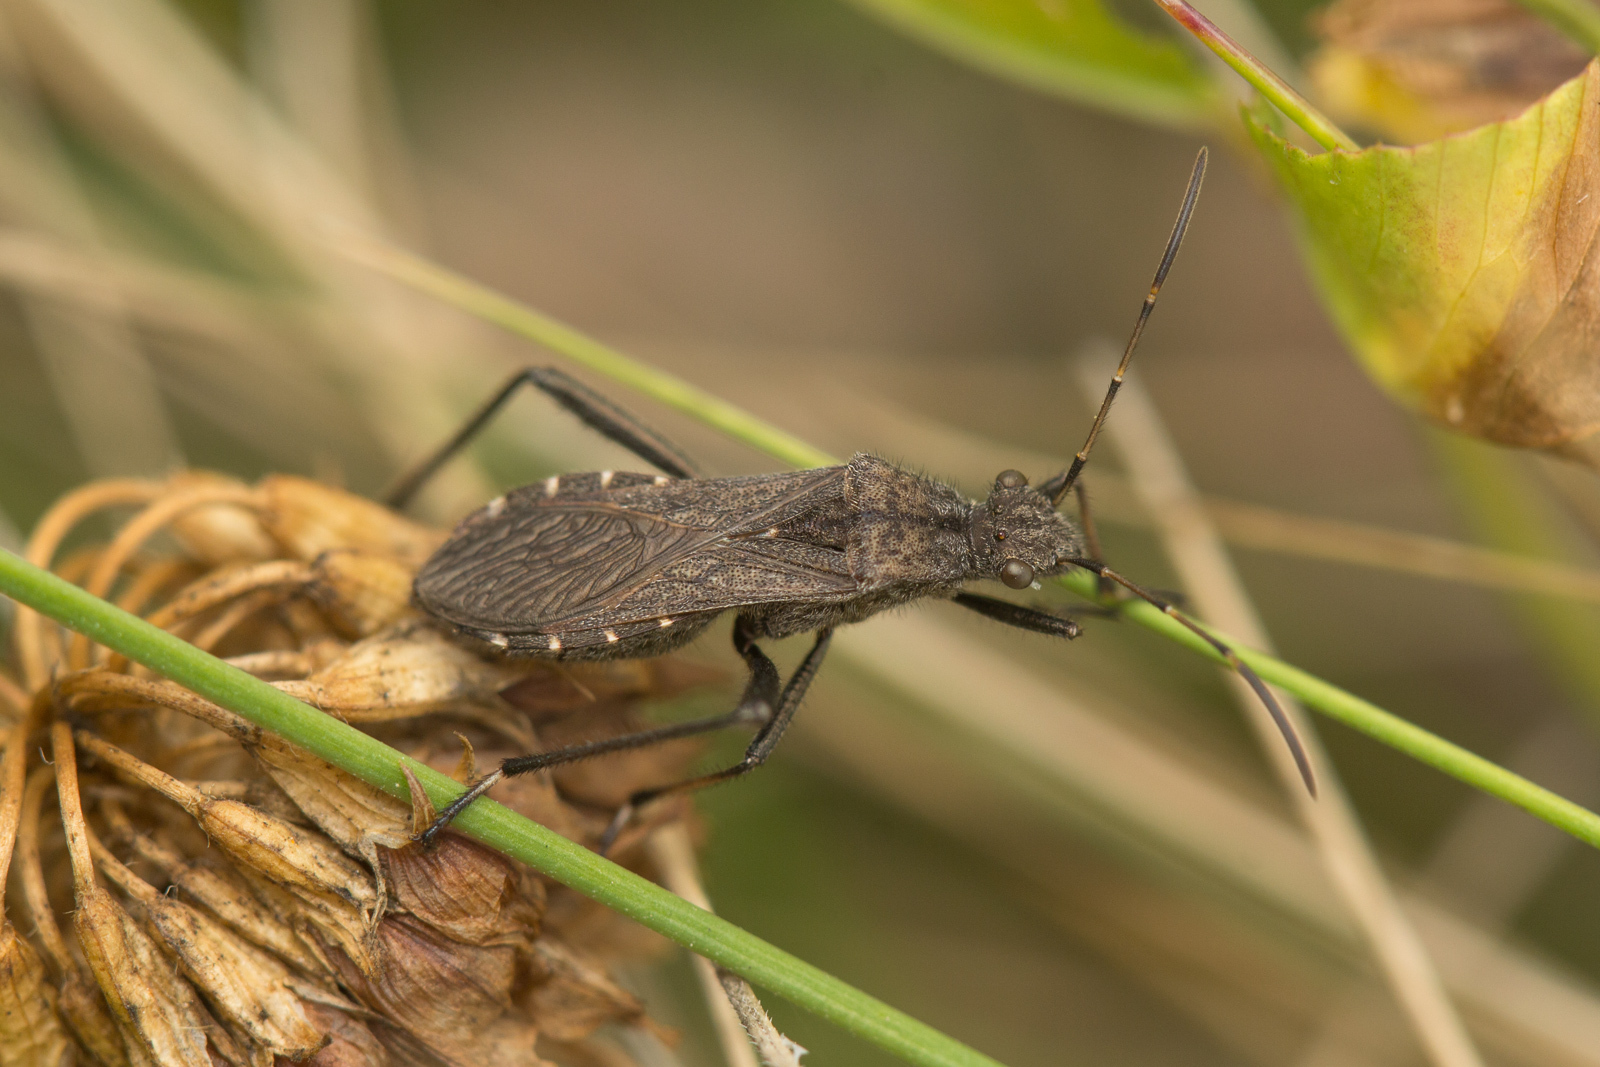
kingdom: Animalia
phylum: Arthropoda
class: Insecta
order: Hemiptera
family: Alydidae
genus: Alydus
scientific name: Alydus calcaratus
